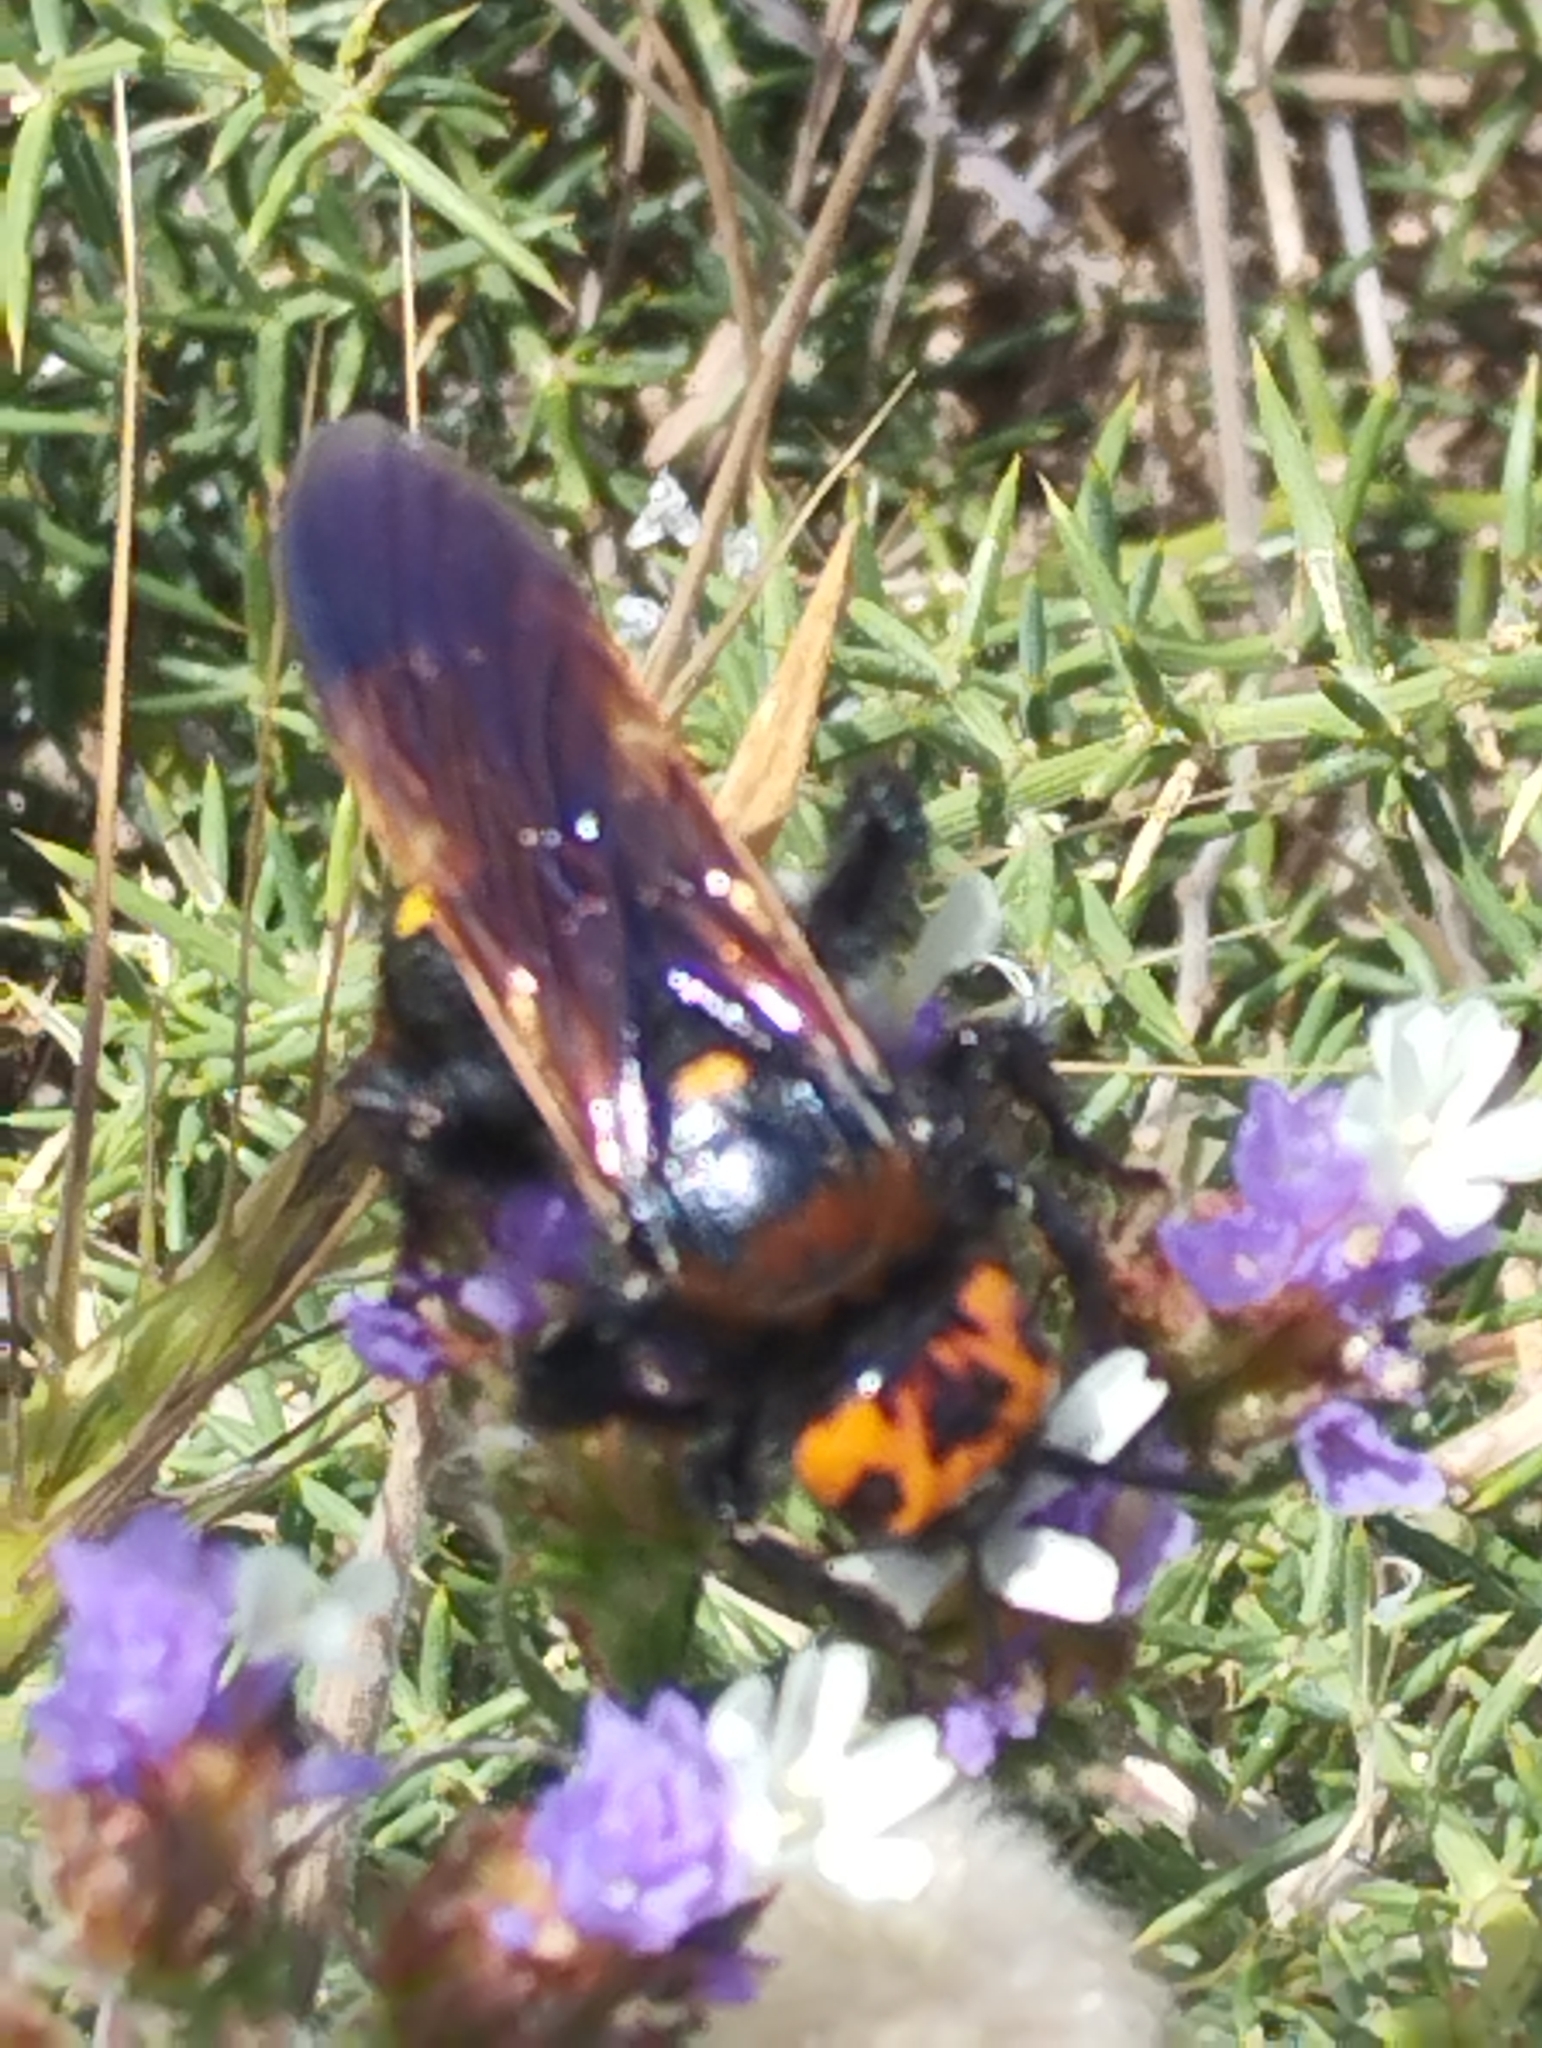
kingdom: Animalia
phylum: Arthropoda
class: Insecta
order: Hymenoptera
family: Scoliidae
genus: Megascolia
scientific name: Megascolia maculata
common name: Mammoth wasp
